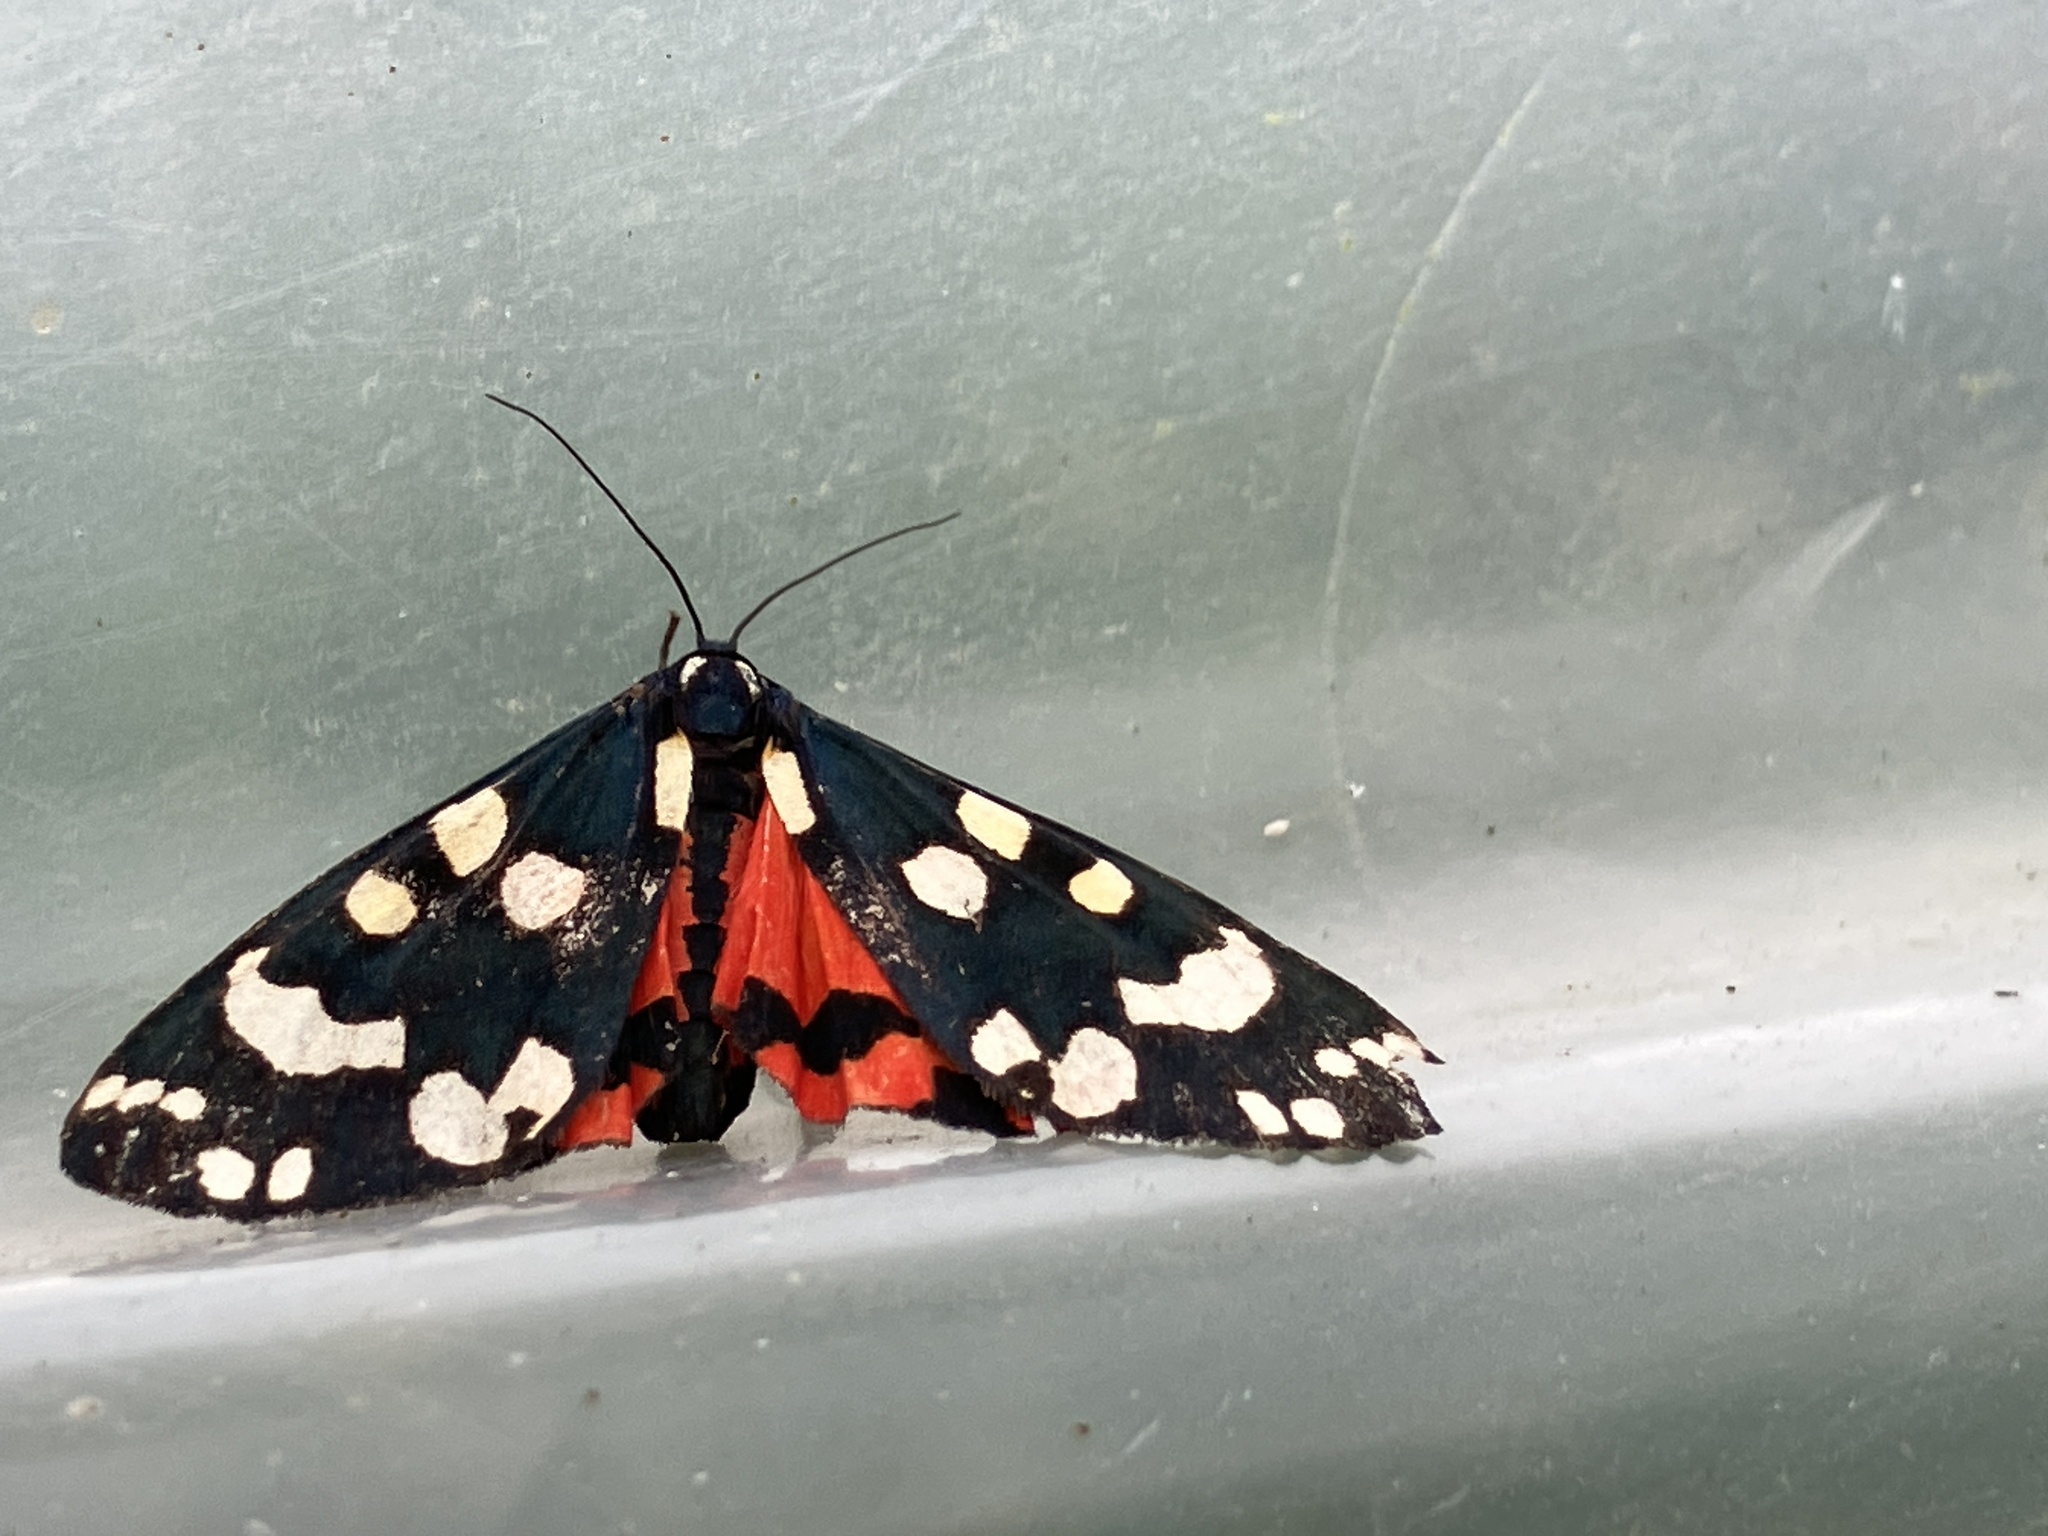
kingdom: Animalia
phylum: Arthropoda
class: Insecta
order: Lepidoptera
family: Erebidae
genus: Callimorpha
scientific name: Callimorpha dominula
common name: Scarlet tiger
